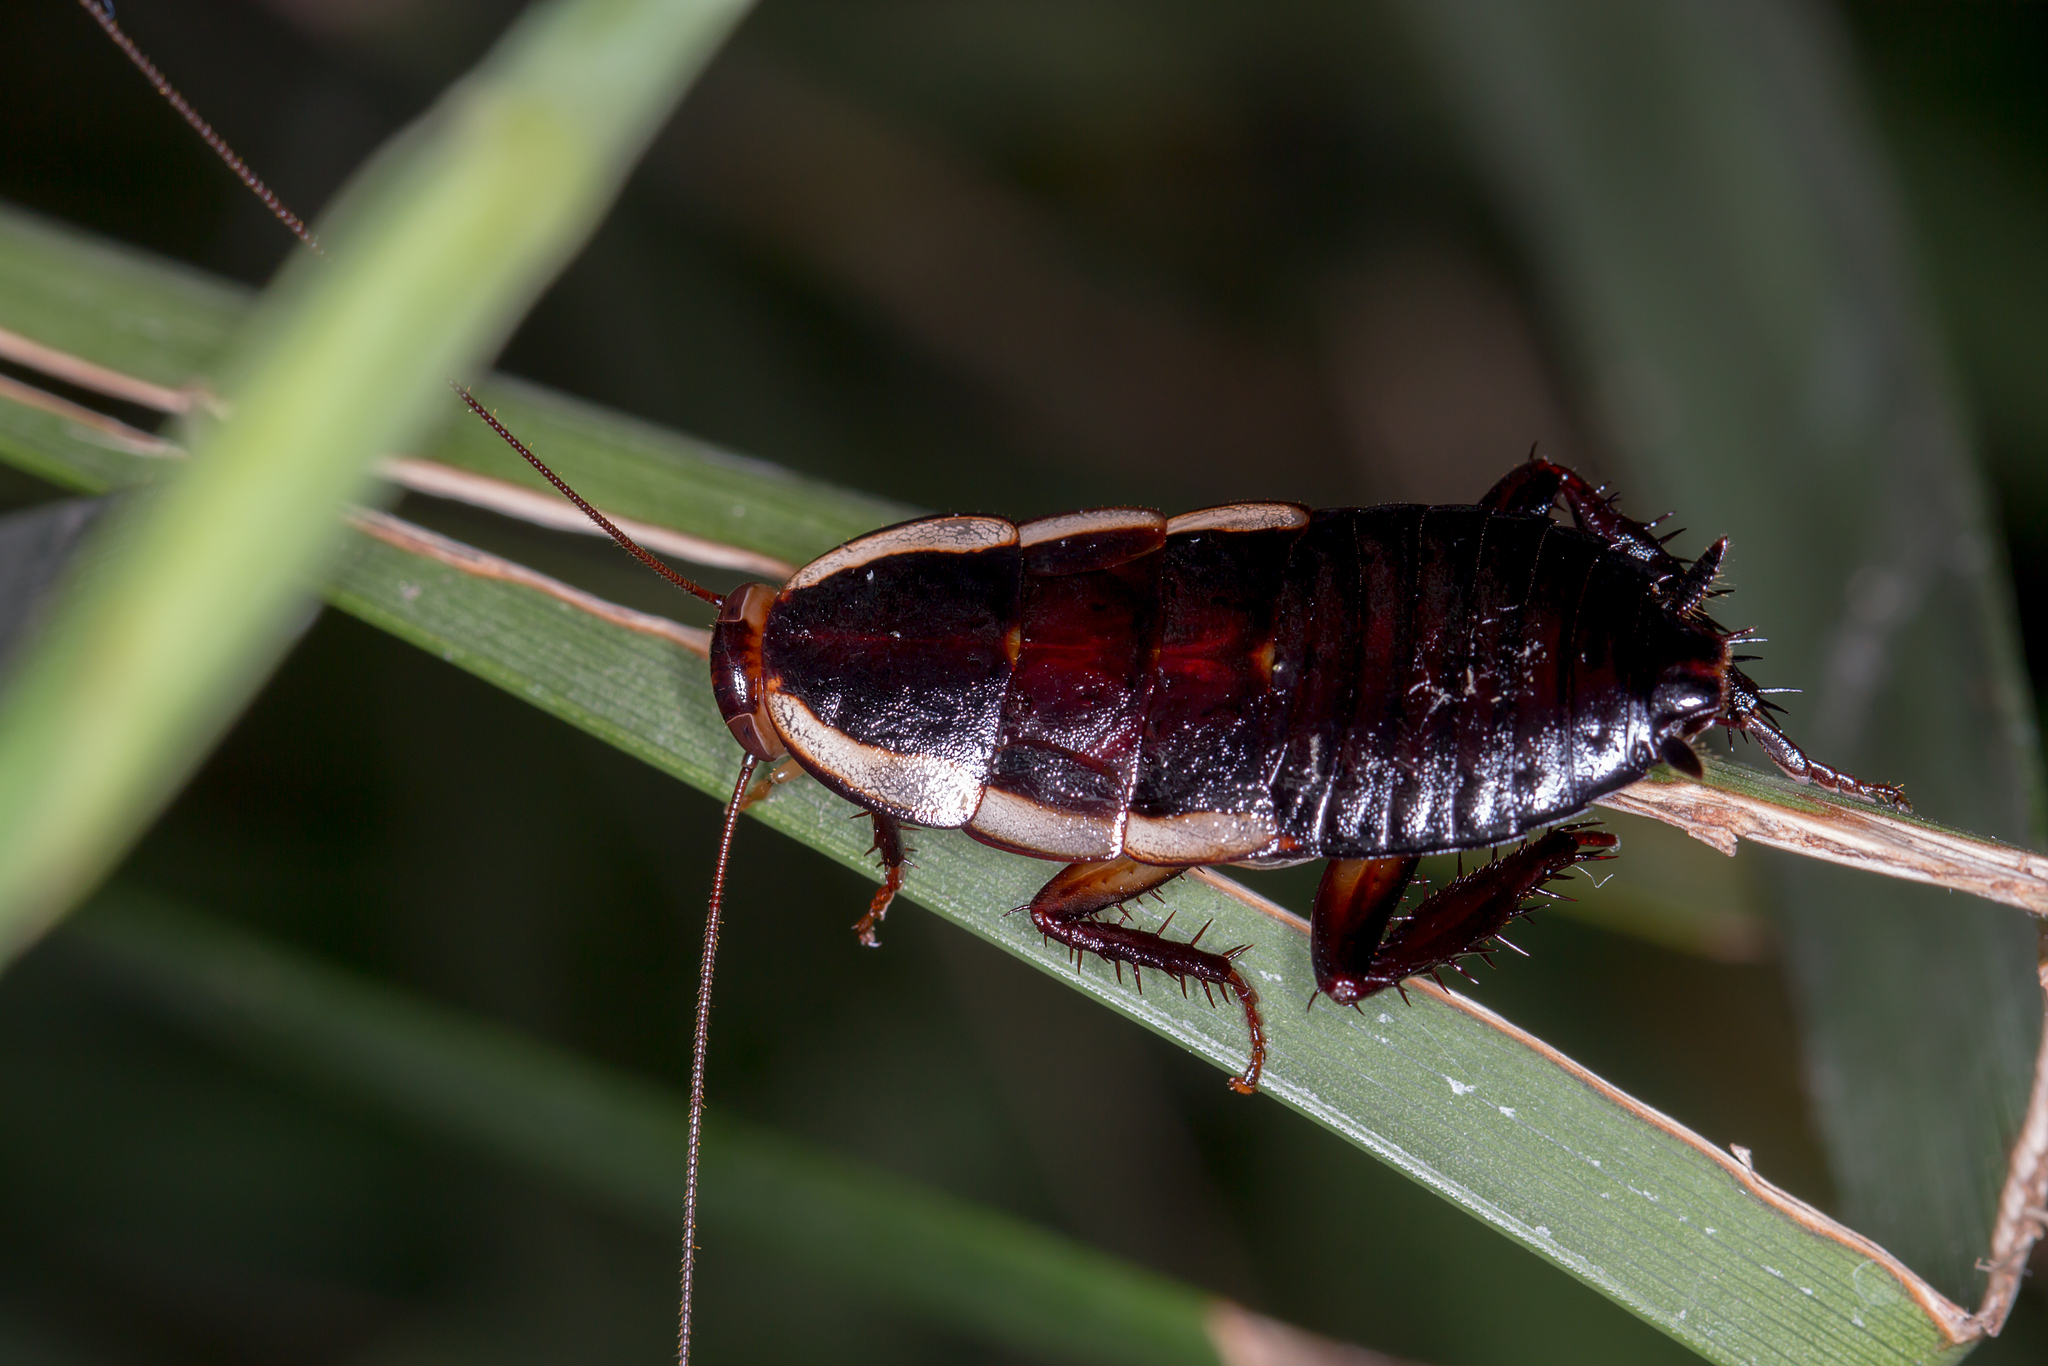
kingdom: Animalia
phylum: Arthropoda
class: Insecta
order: Blattodea
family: Blattidae
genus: Drymaplaneta
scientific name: Drymaplaneta semivitta
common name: Gisborne cockroach
